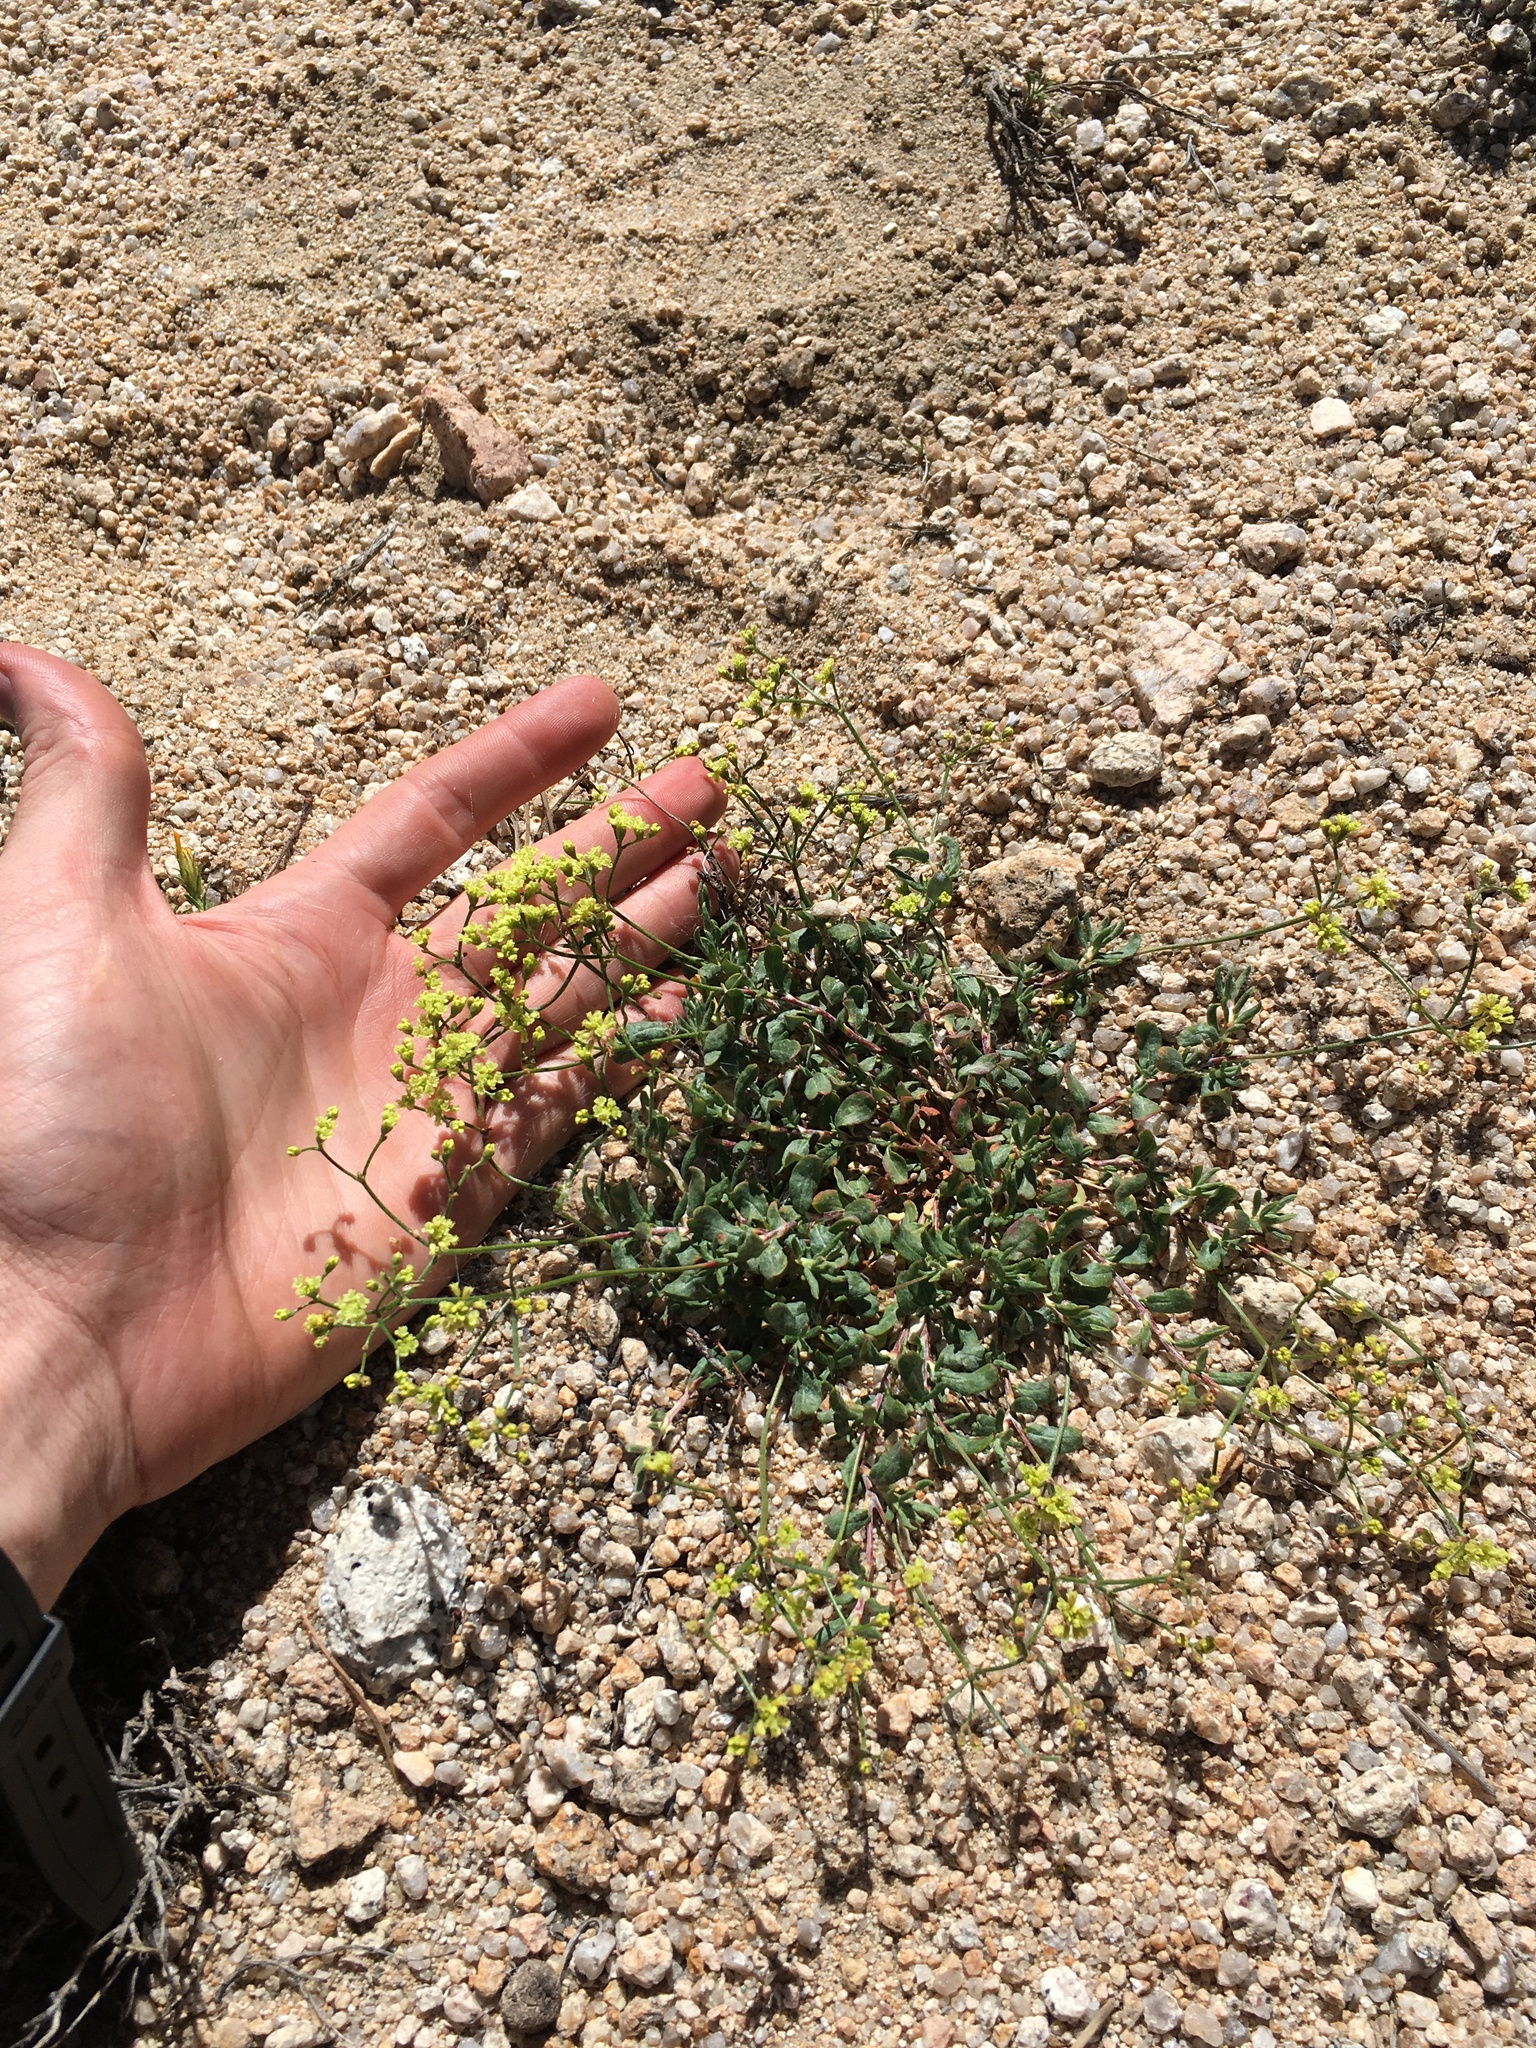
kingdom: Plantae
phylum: Tracheophyta
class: Magnoliopsida
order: Caryophyllales
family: Polygonaceae
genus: Eriogonum
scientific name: Eriogonum microtheca
